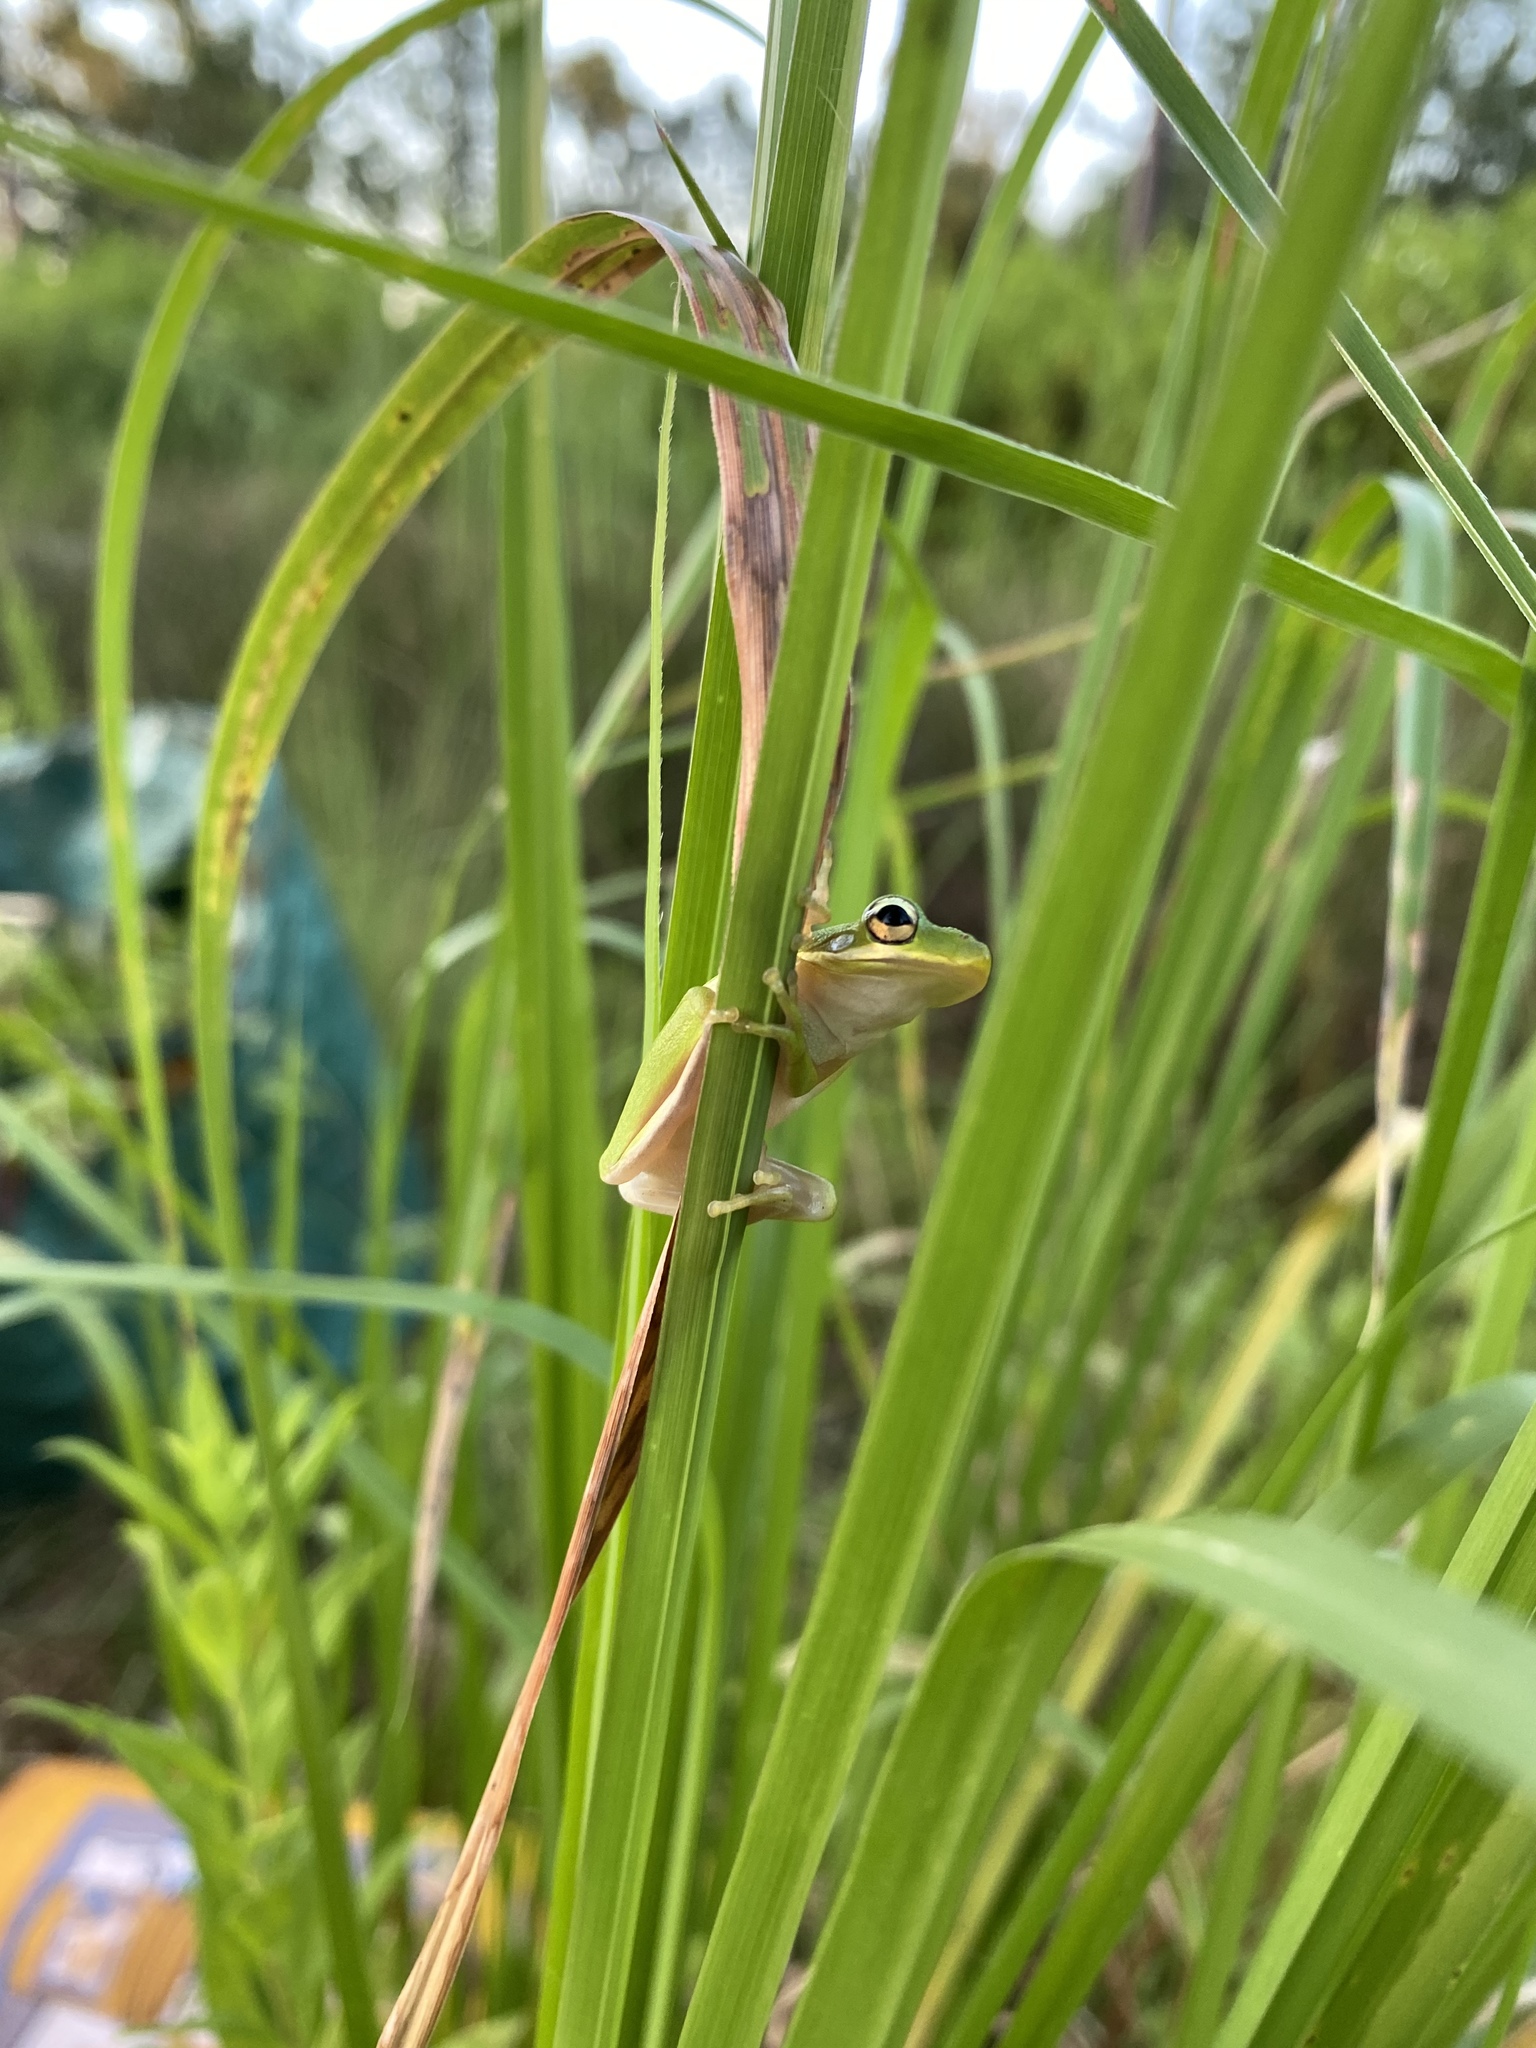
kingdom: Animalia
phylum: Chordata
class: Amphibia
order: Anura
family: Hylidae
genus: Dryophytes
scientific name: Dryophytes cinereus
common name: Green treefrog
